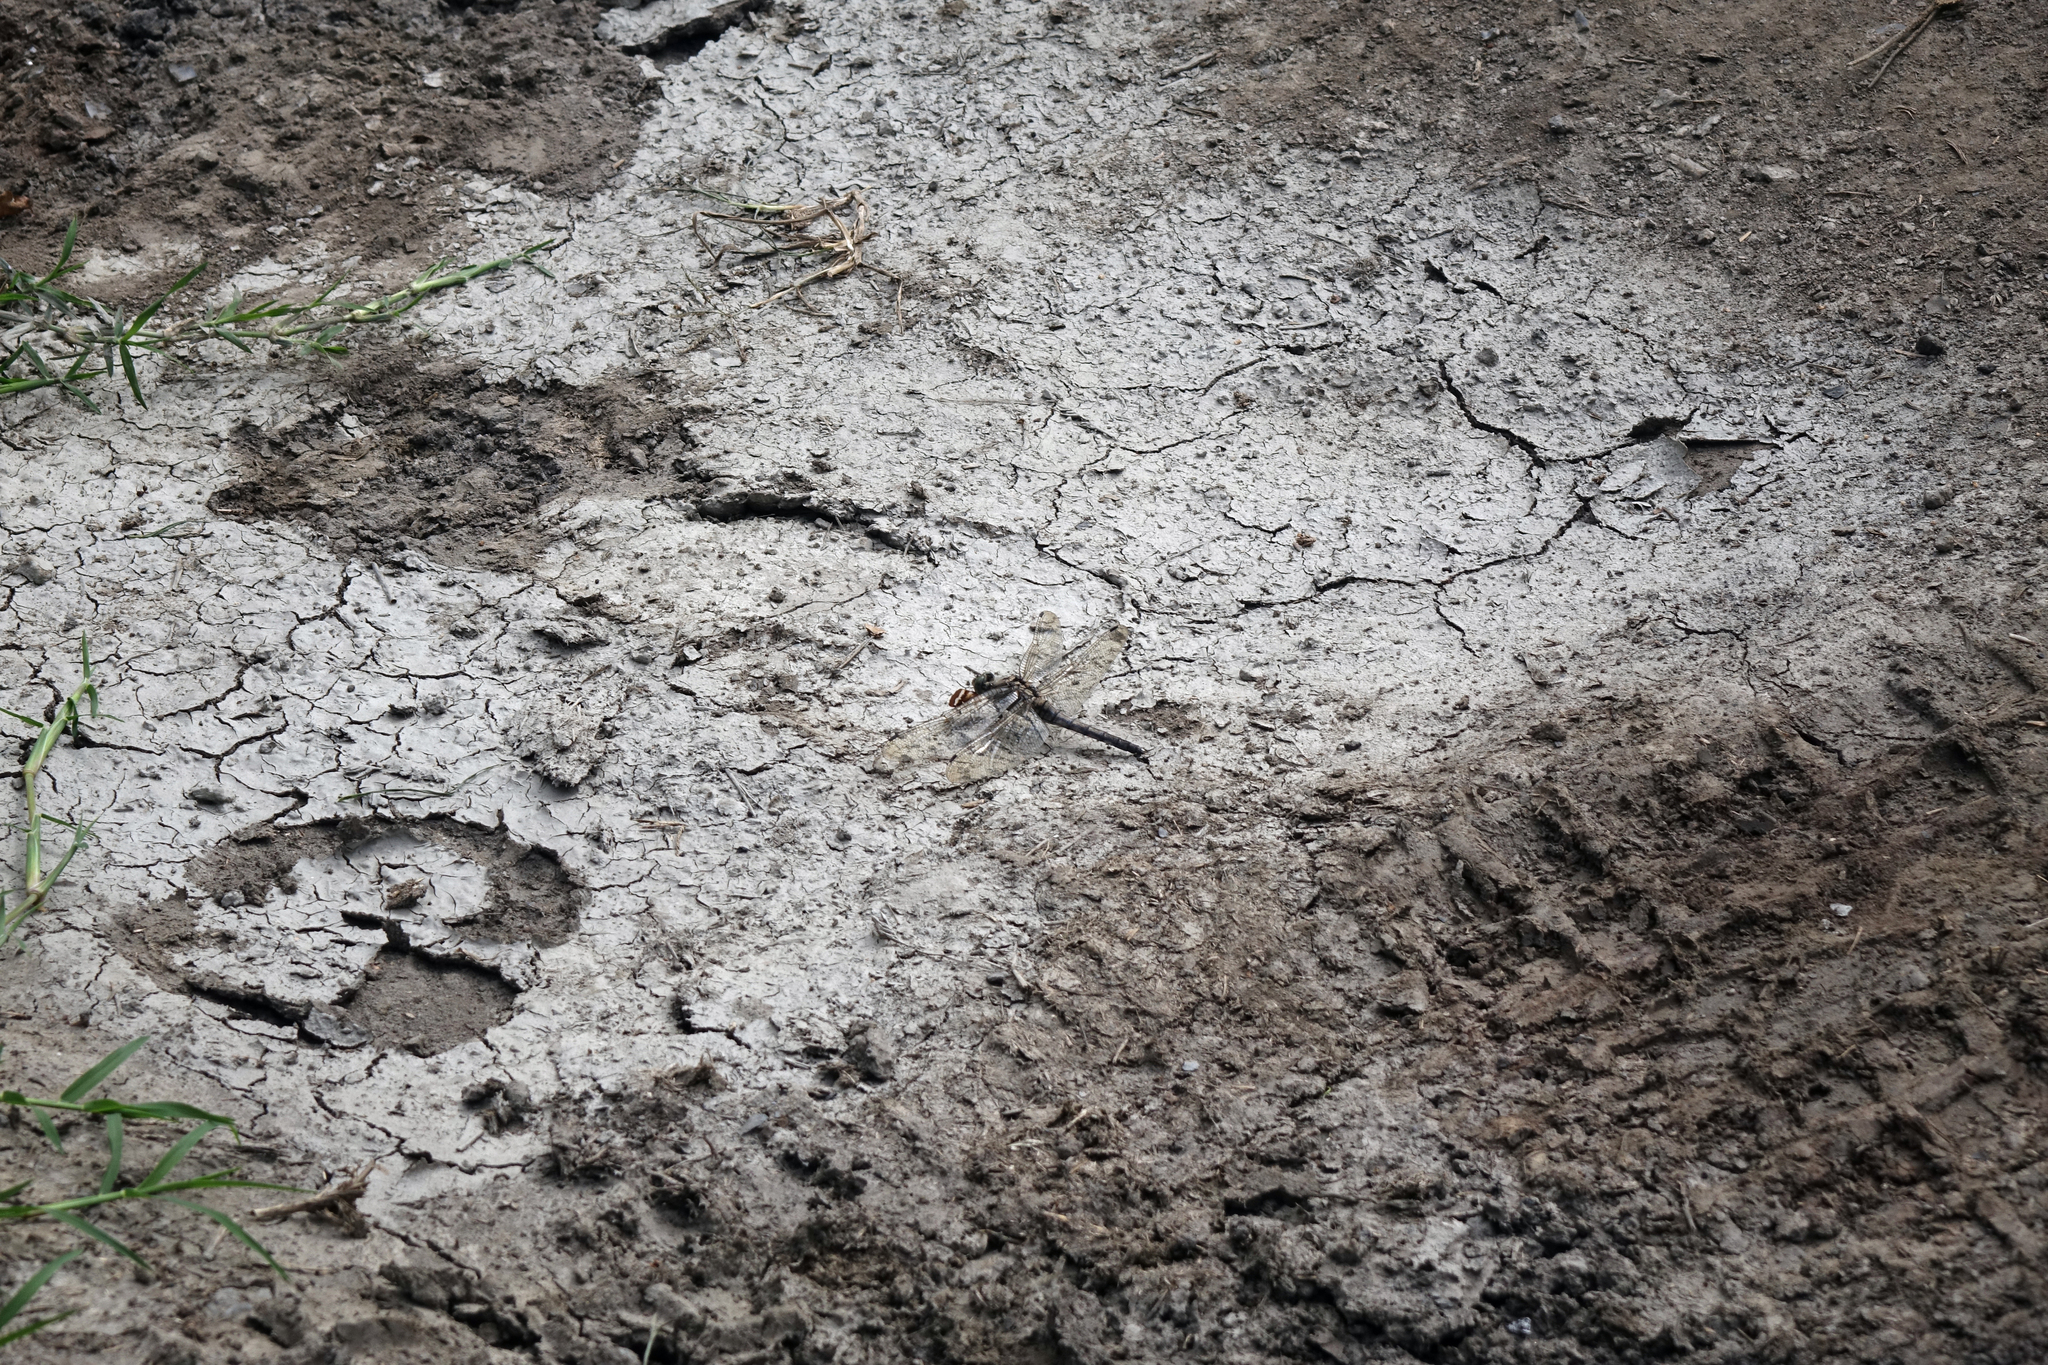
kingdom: Animalia
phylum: Arthropoda
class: Insecta
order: Odonata
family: Libellulidae
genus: Orthetrum
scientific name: Orthetrum cancellatum
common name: Black-tailed skimmer
